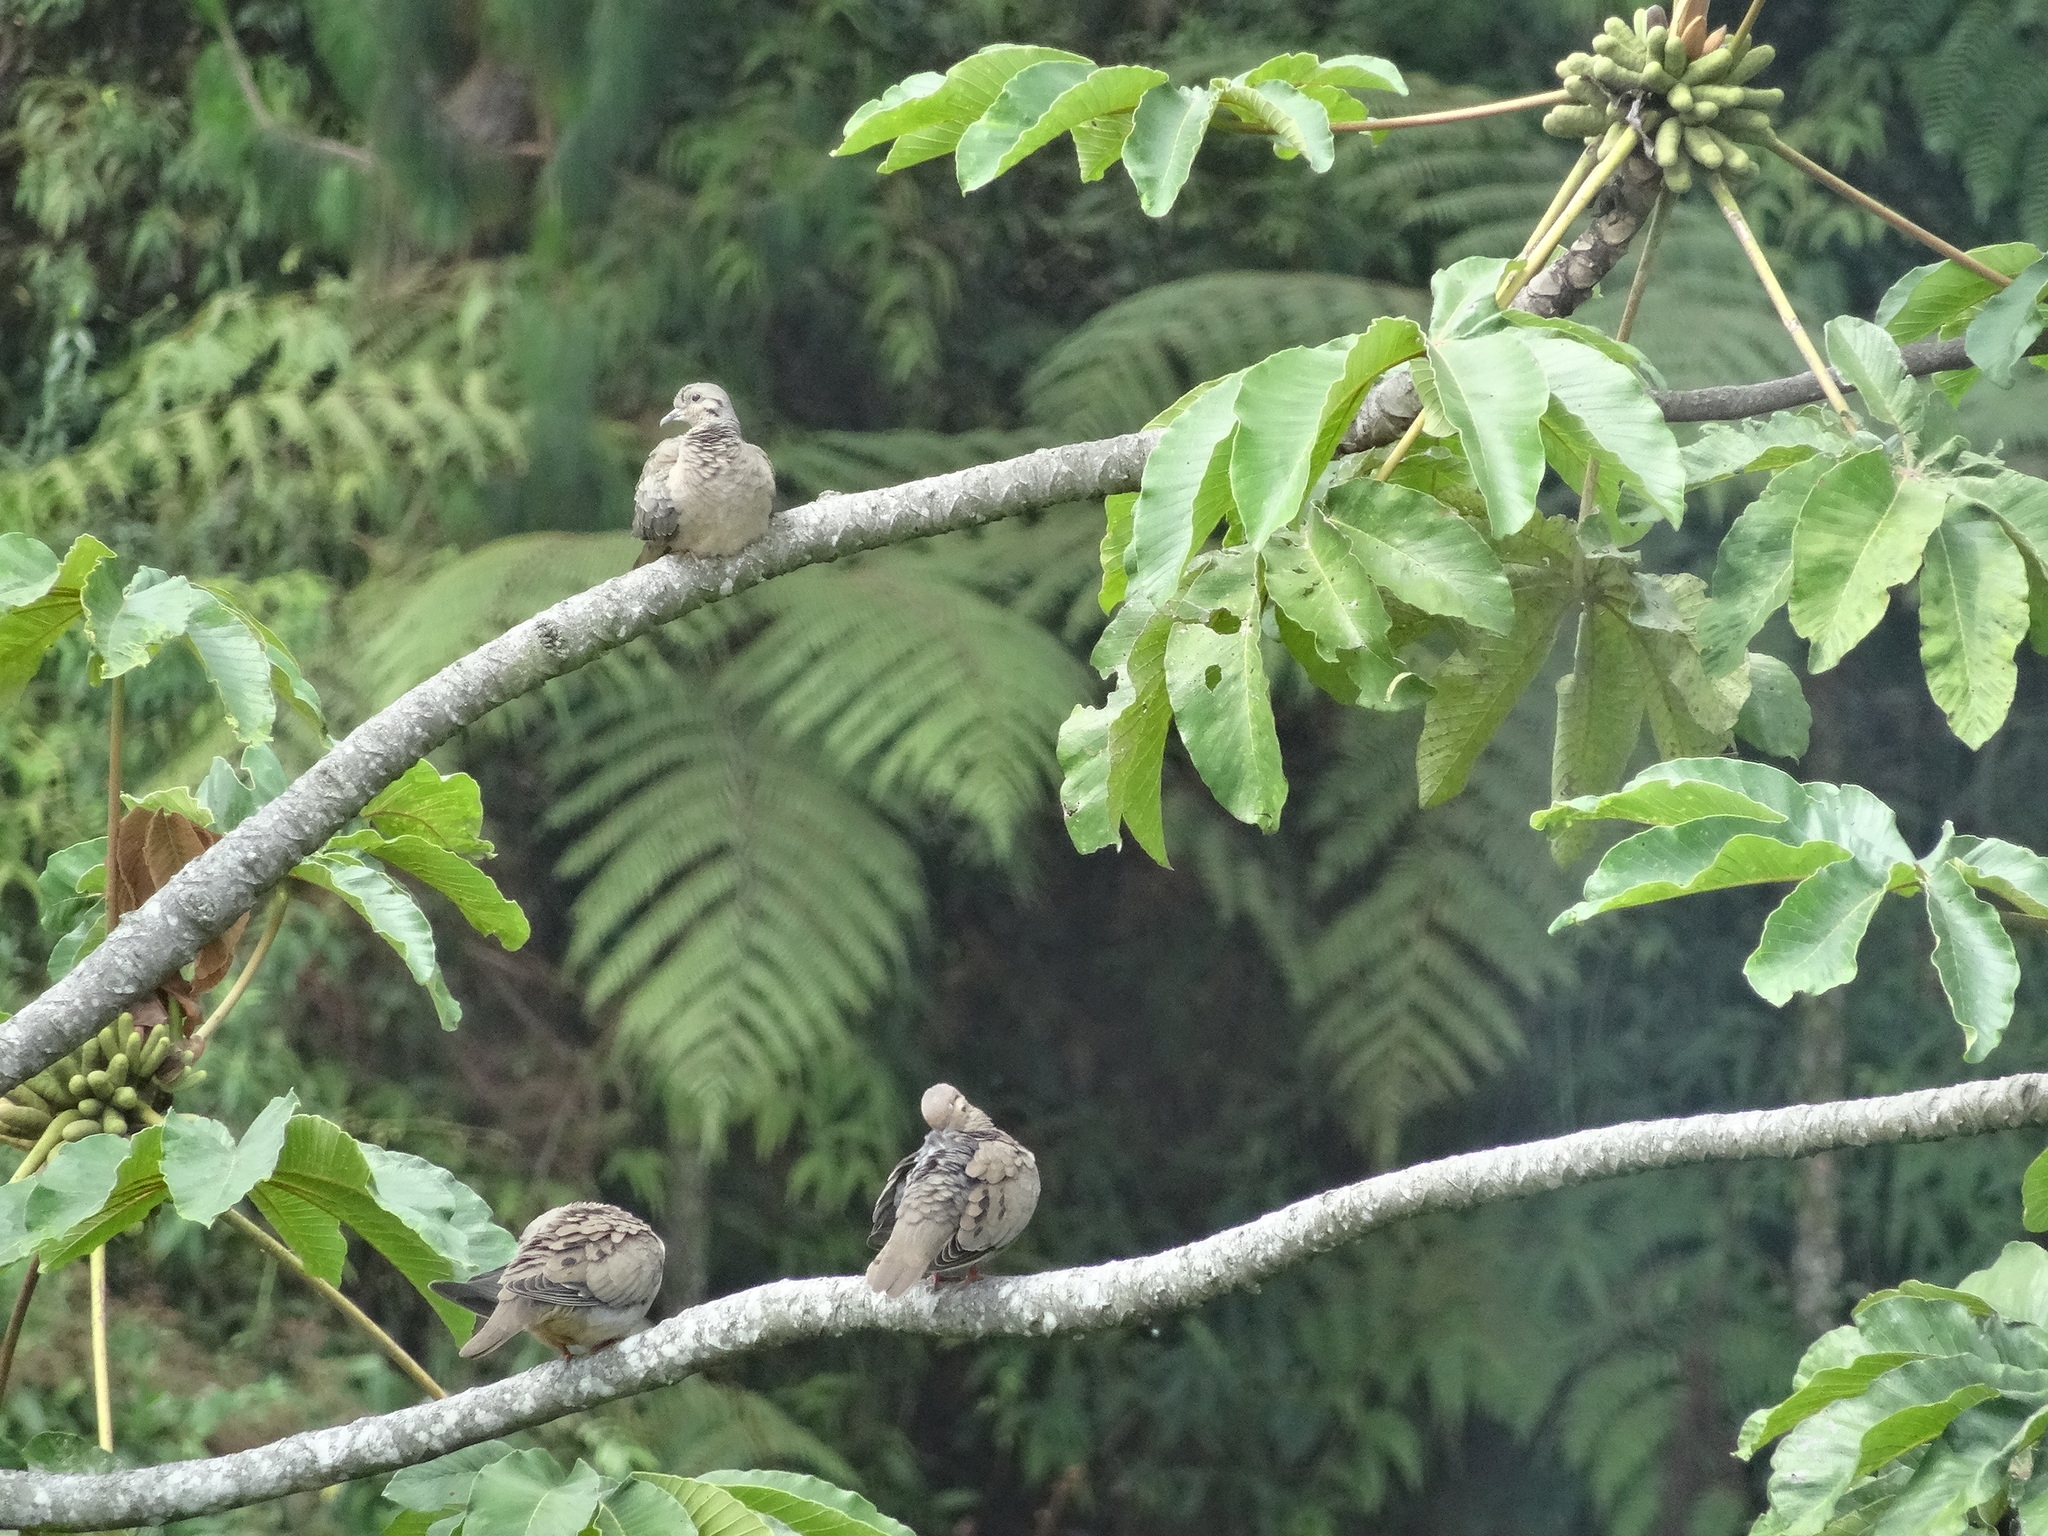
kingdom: Animalia
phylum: Chordata
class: Aves
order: Columbiformes
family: Columbidae
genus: Zenaida
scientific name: Zenaida auriculata
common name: Eared dove
